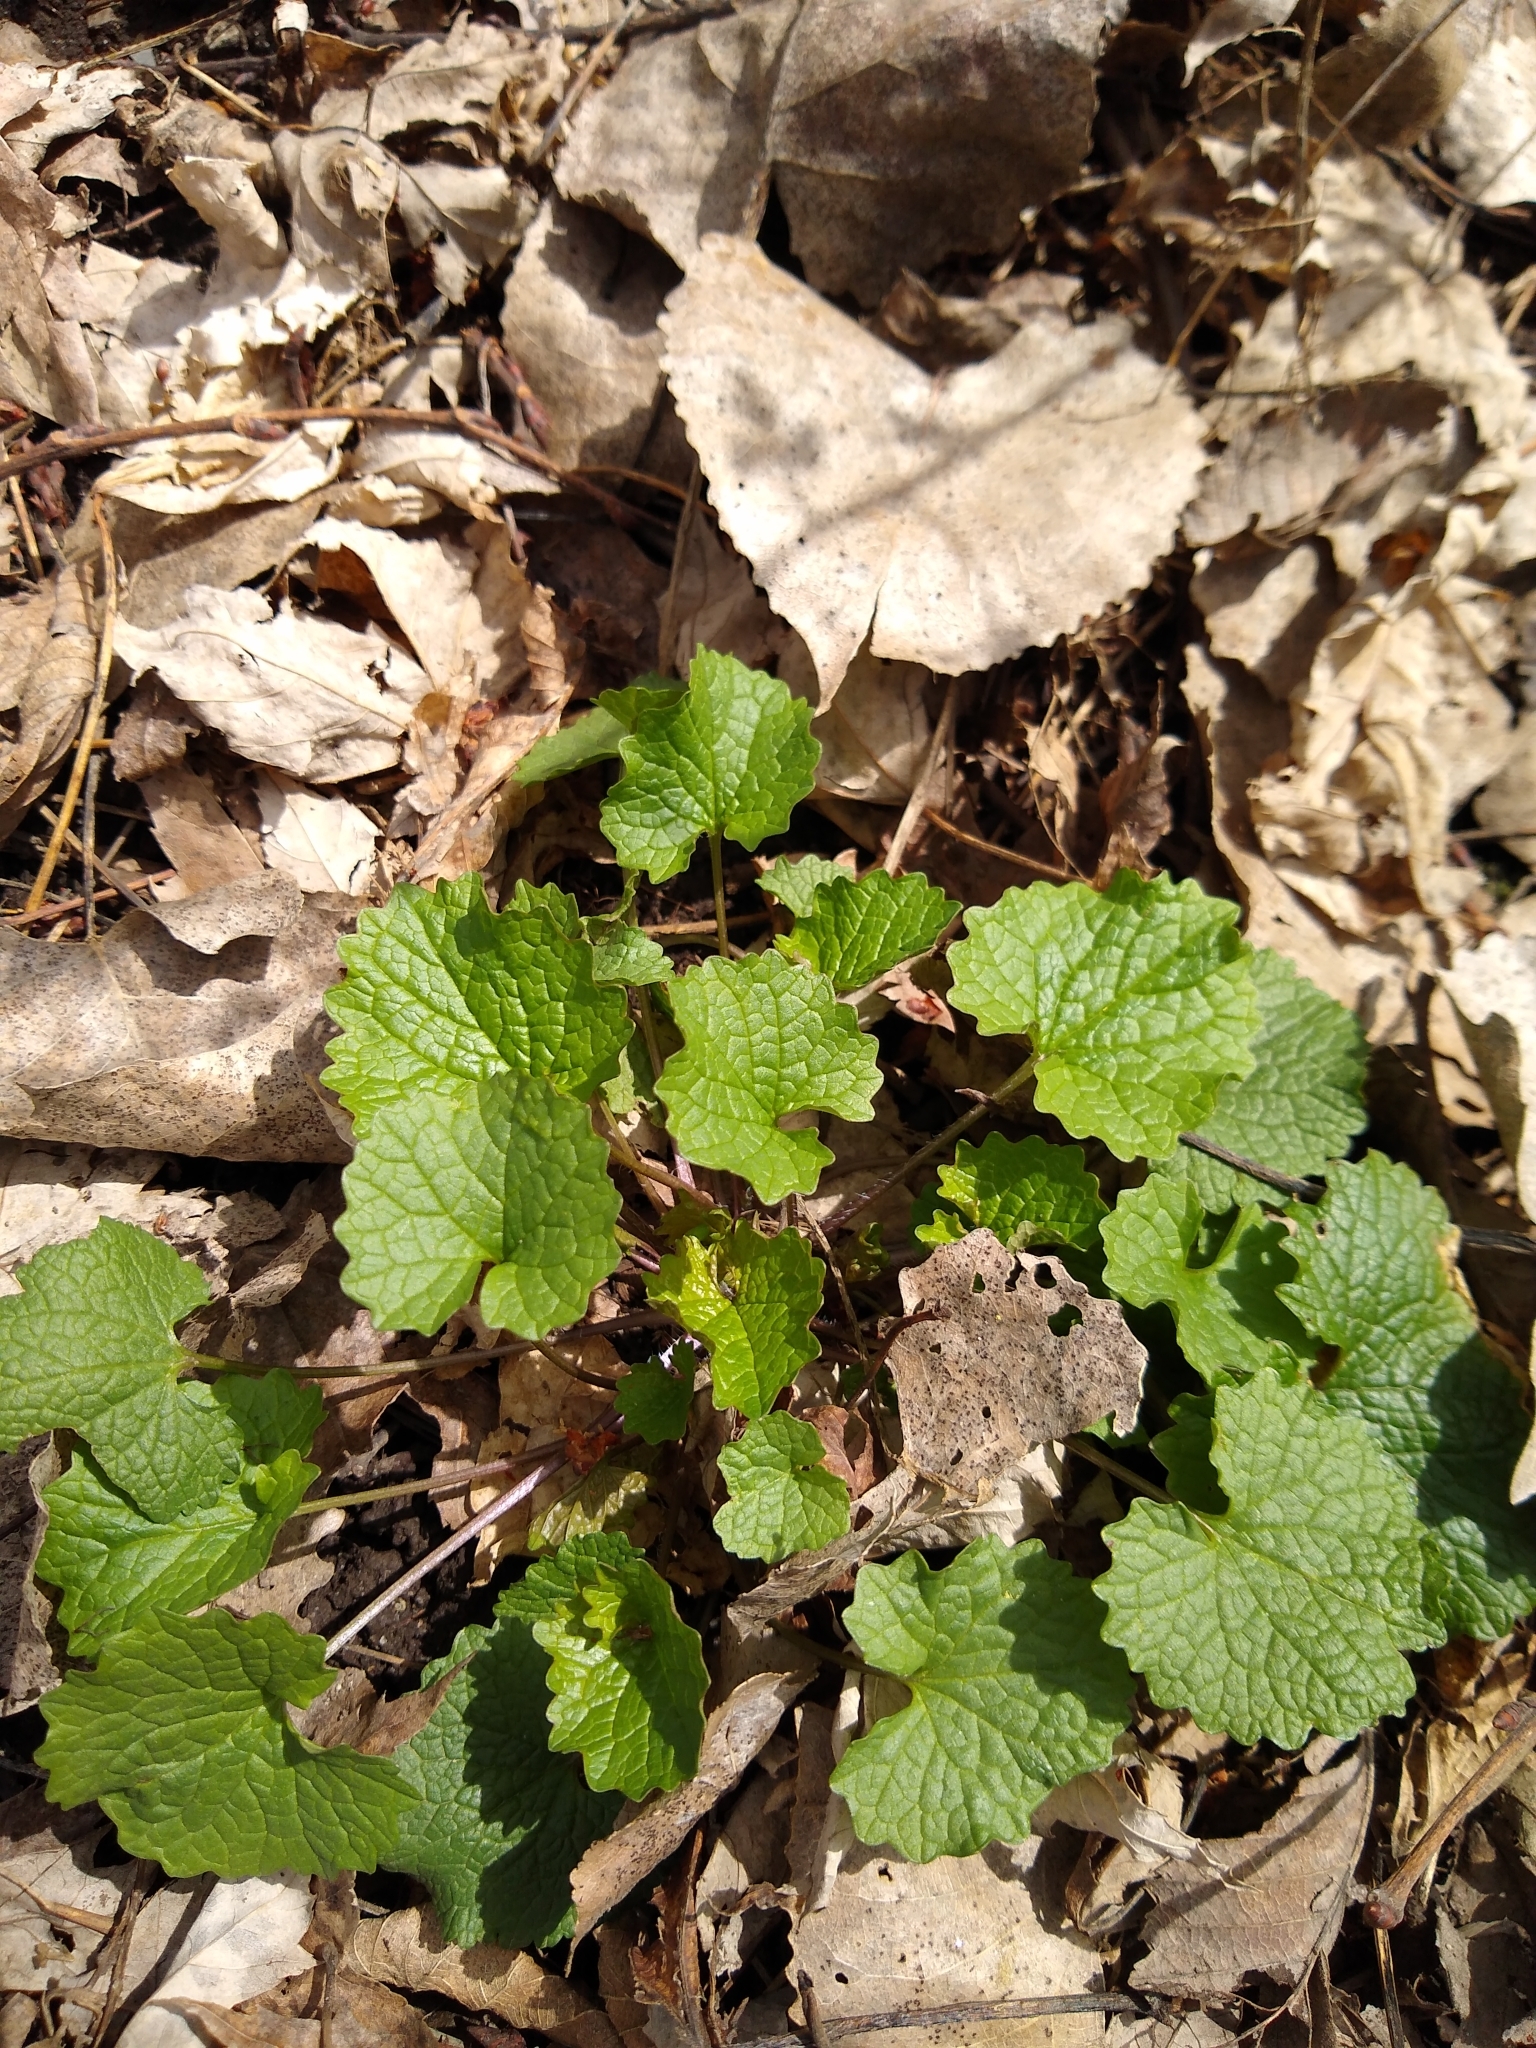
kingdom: Plantae
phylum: Tracheophyta
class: Magnoliopsida
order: Brassicales
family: Brassicaceae
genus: Alliaria
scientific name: Alliaria petiolata
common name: Garlic mustard
